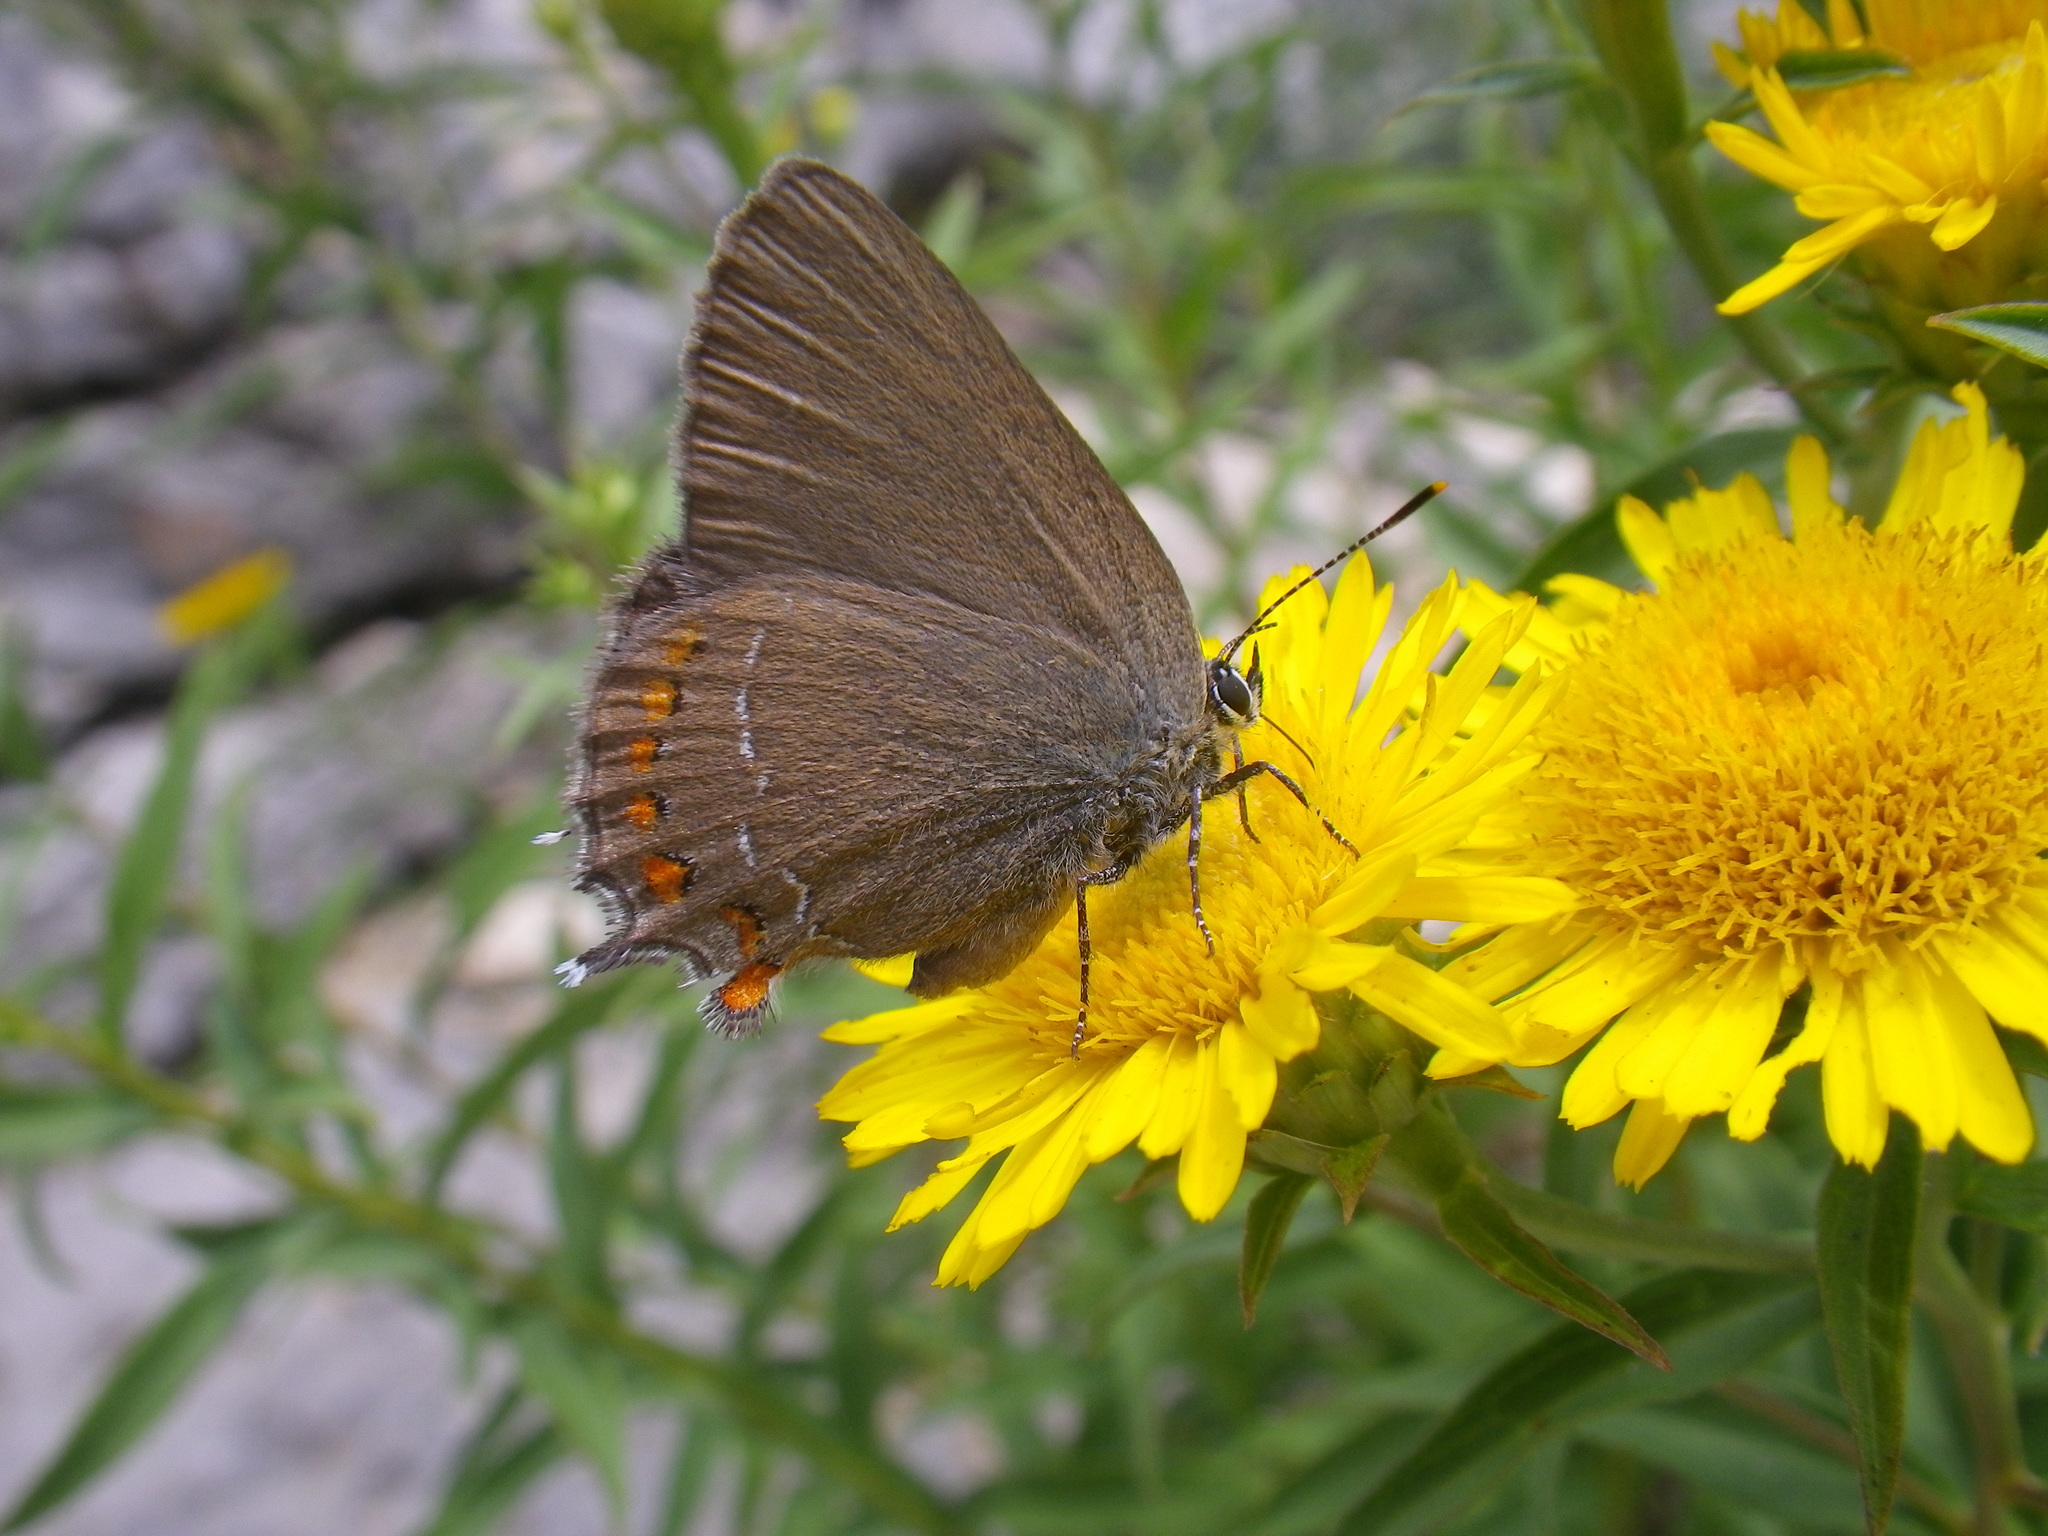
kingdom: Animalia
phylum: Arthropoda
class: Insecta
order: Lepidoptera
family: Lycaenidae
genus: Fixsenia
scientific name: Fixsenia esculi
